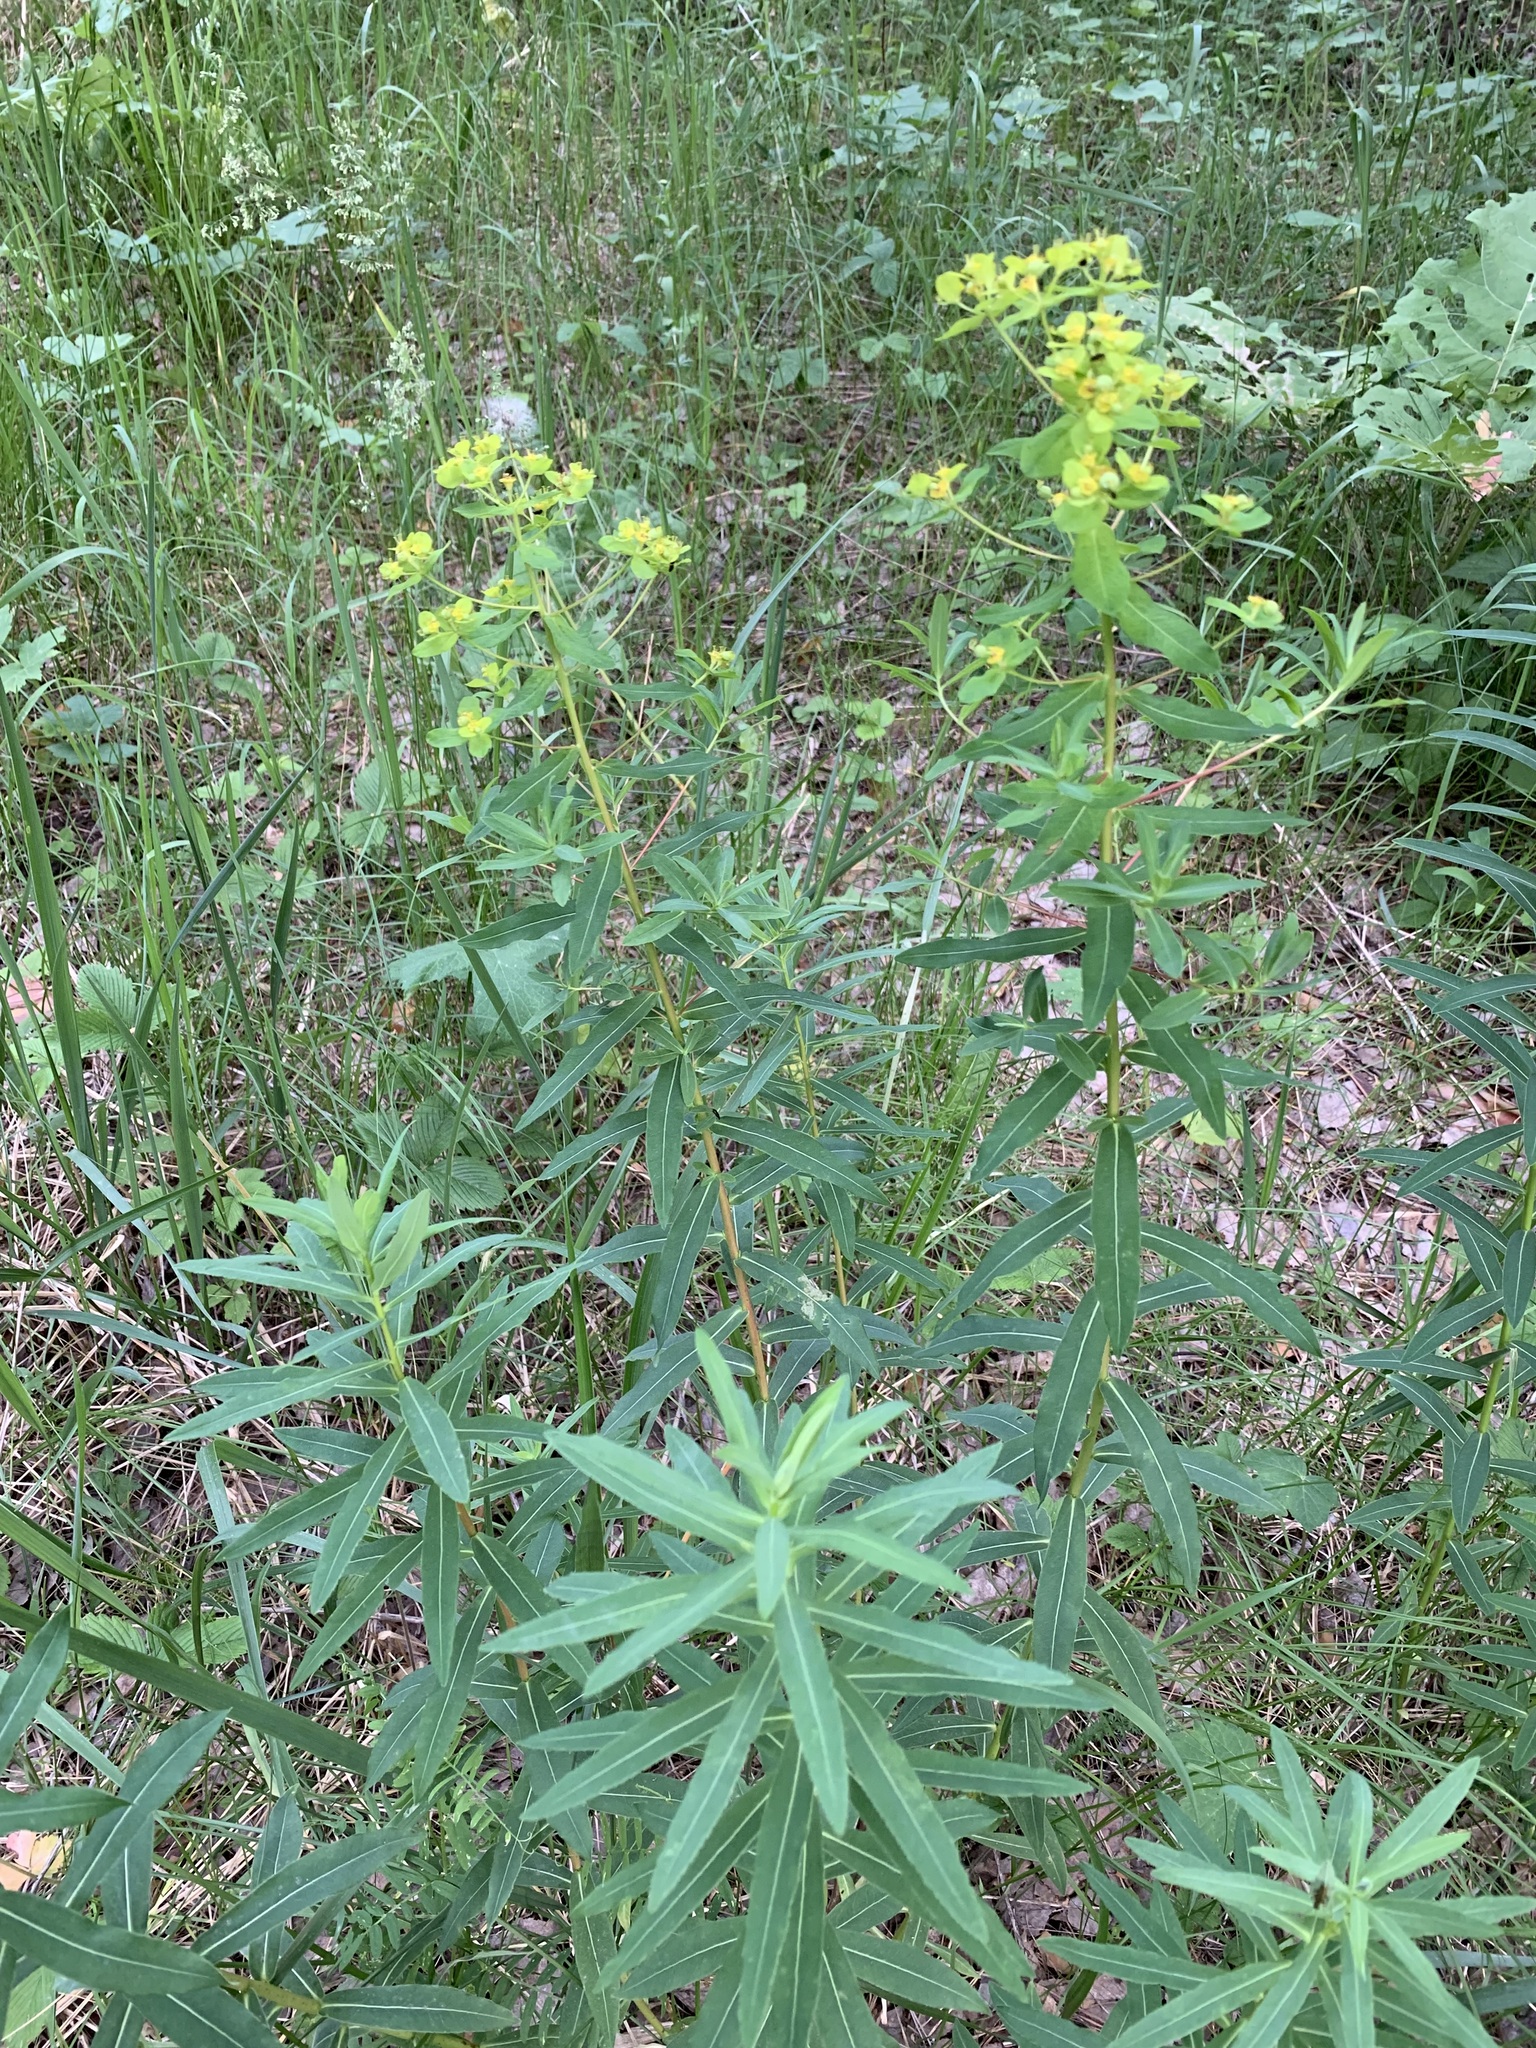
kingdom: Plantae
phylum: Tracheophyta
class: Magnoliopsida
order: Malpighiales
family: Euphorbiaceae
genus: Euphorbia
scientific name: Euphorbia semivillosa
